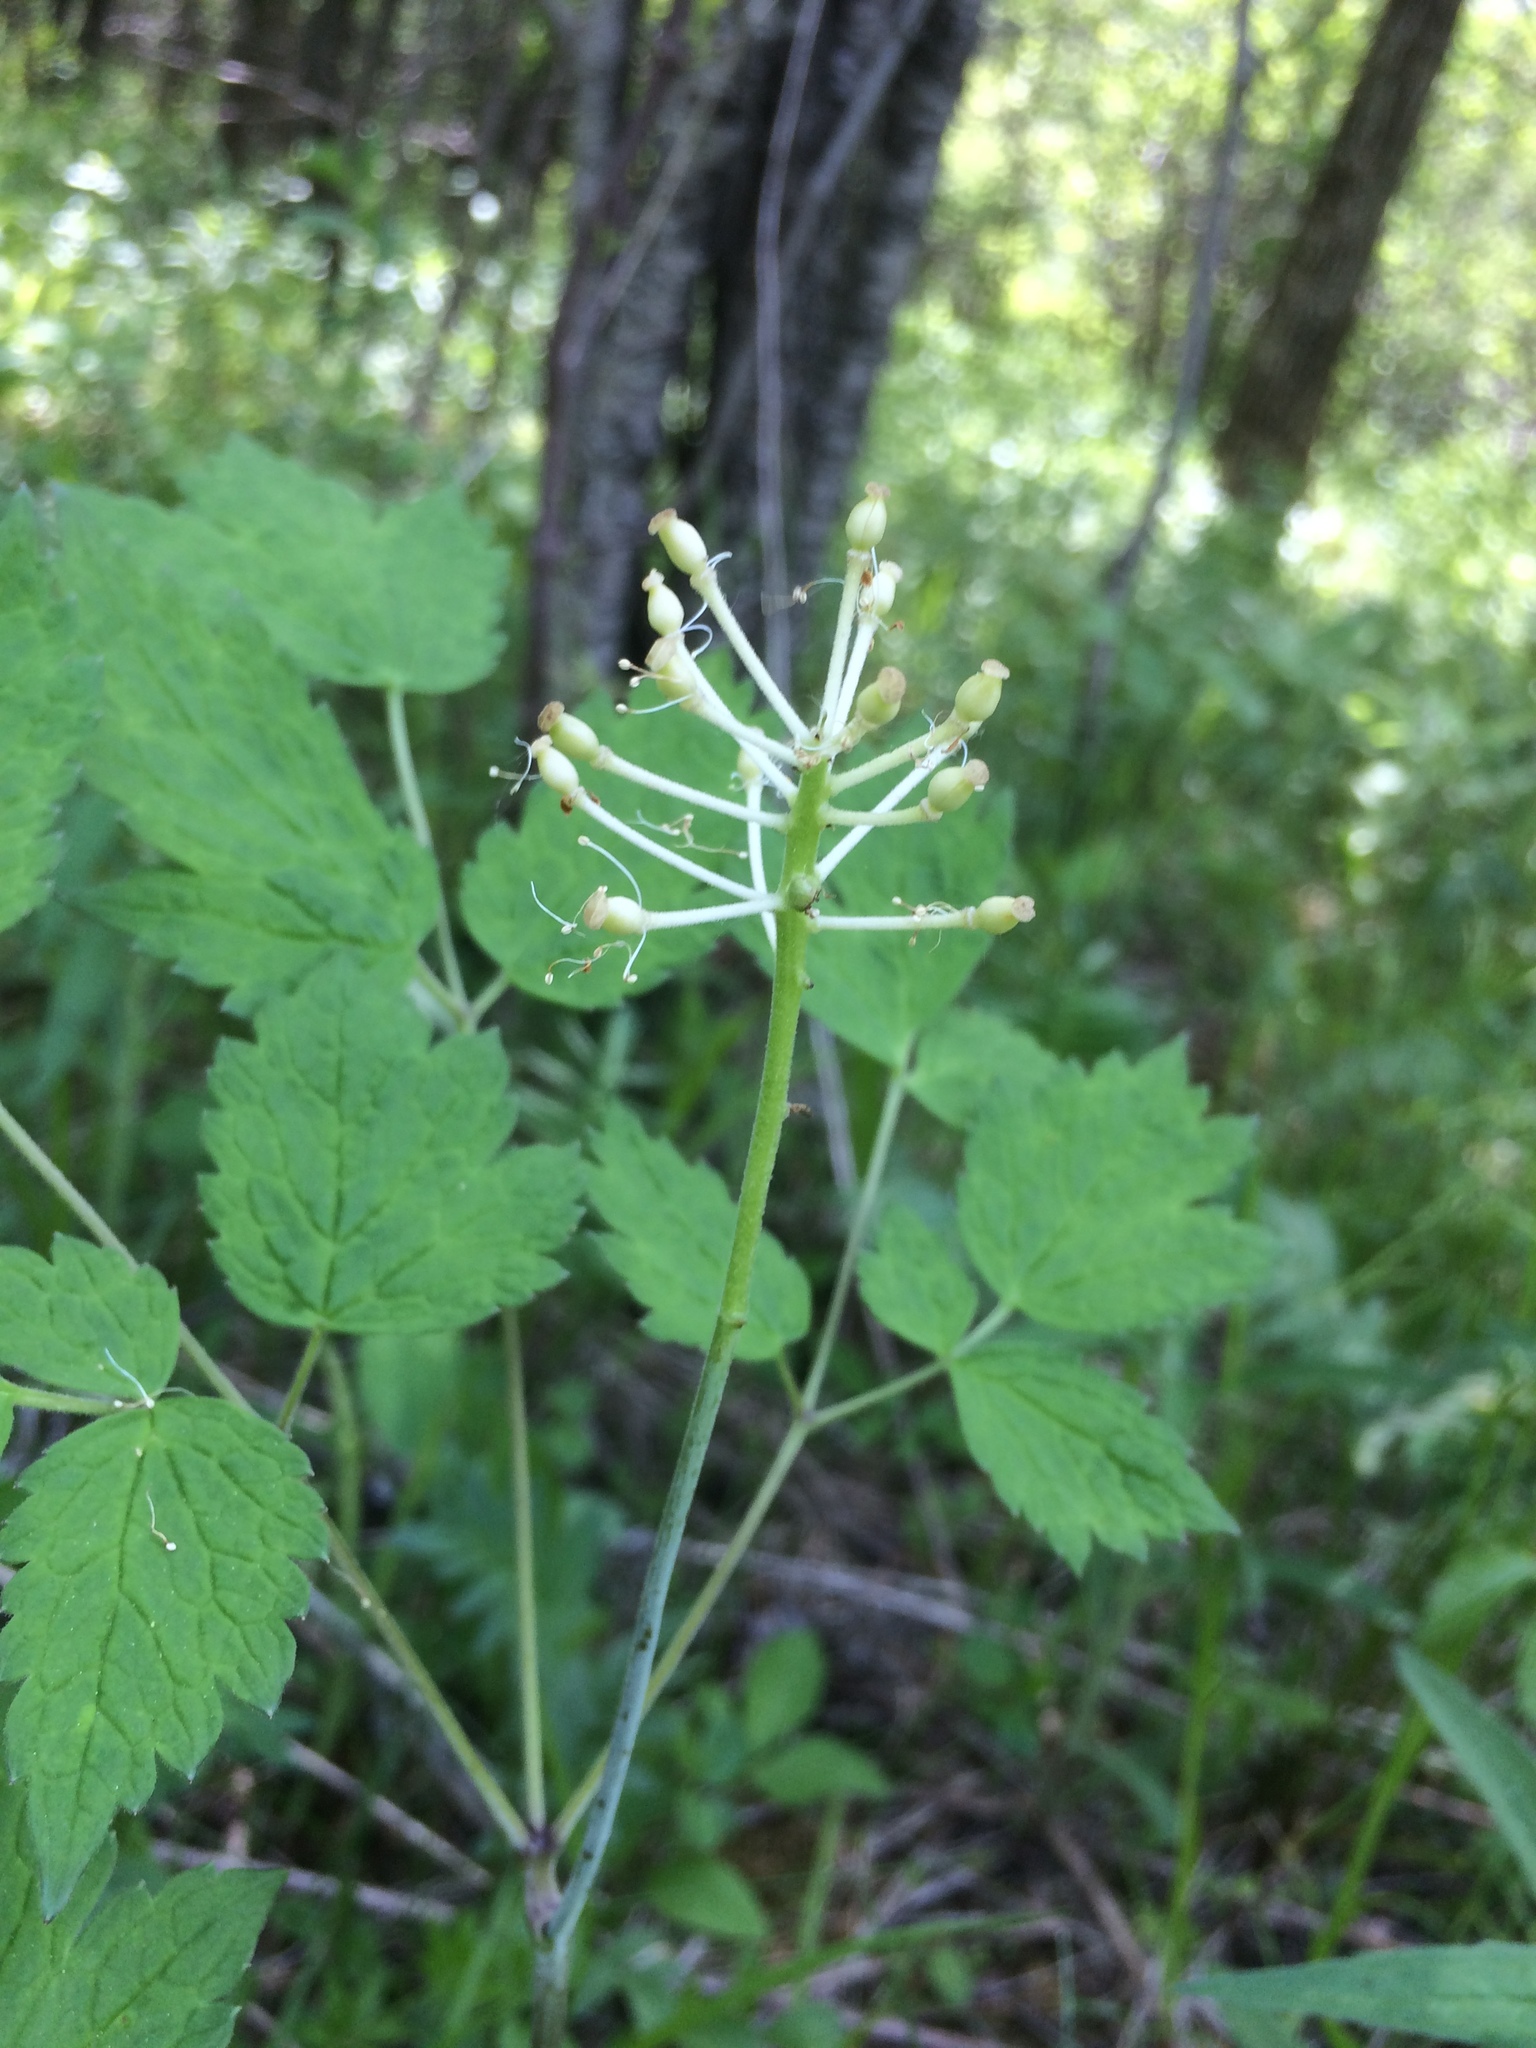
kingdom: Plantae
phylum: Tracheophyta
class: Magnoliopsida
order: Ranunculales
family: Ranunculaceae
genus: Actaea
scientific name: Actaea rubra
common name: Red baneberry
